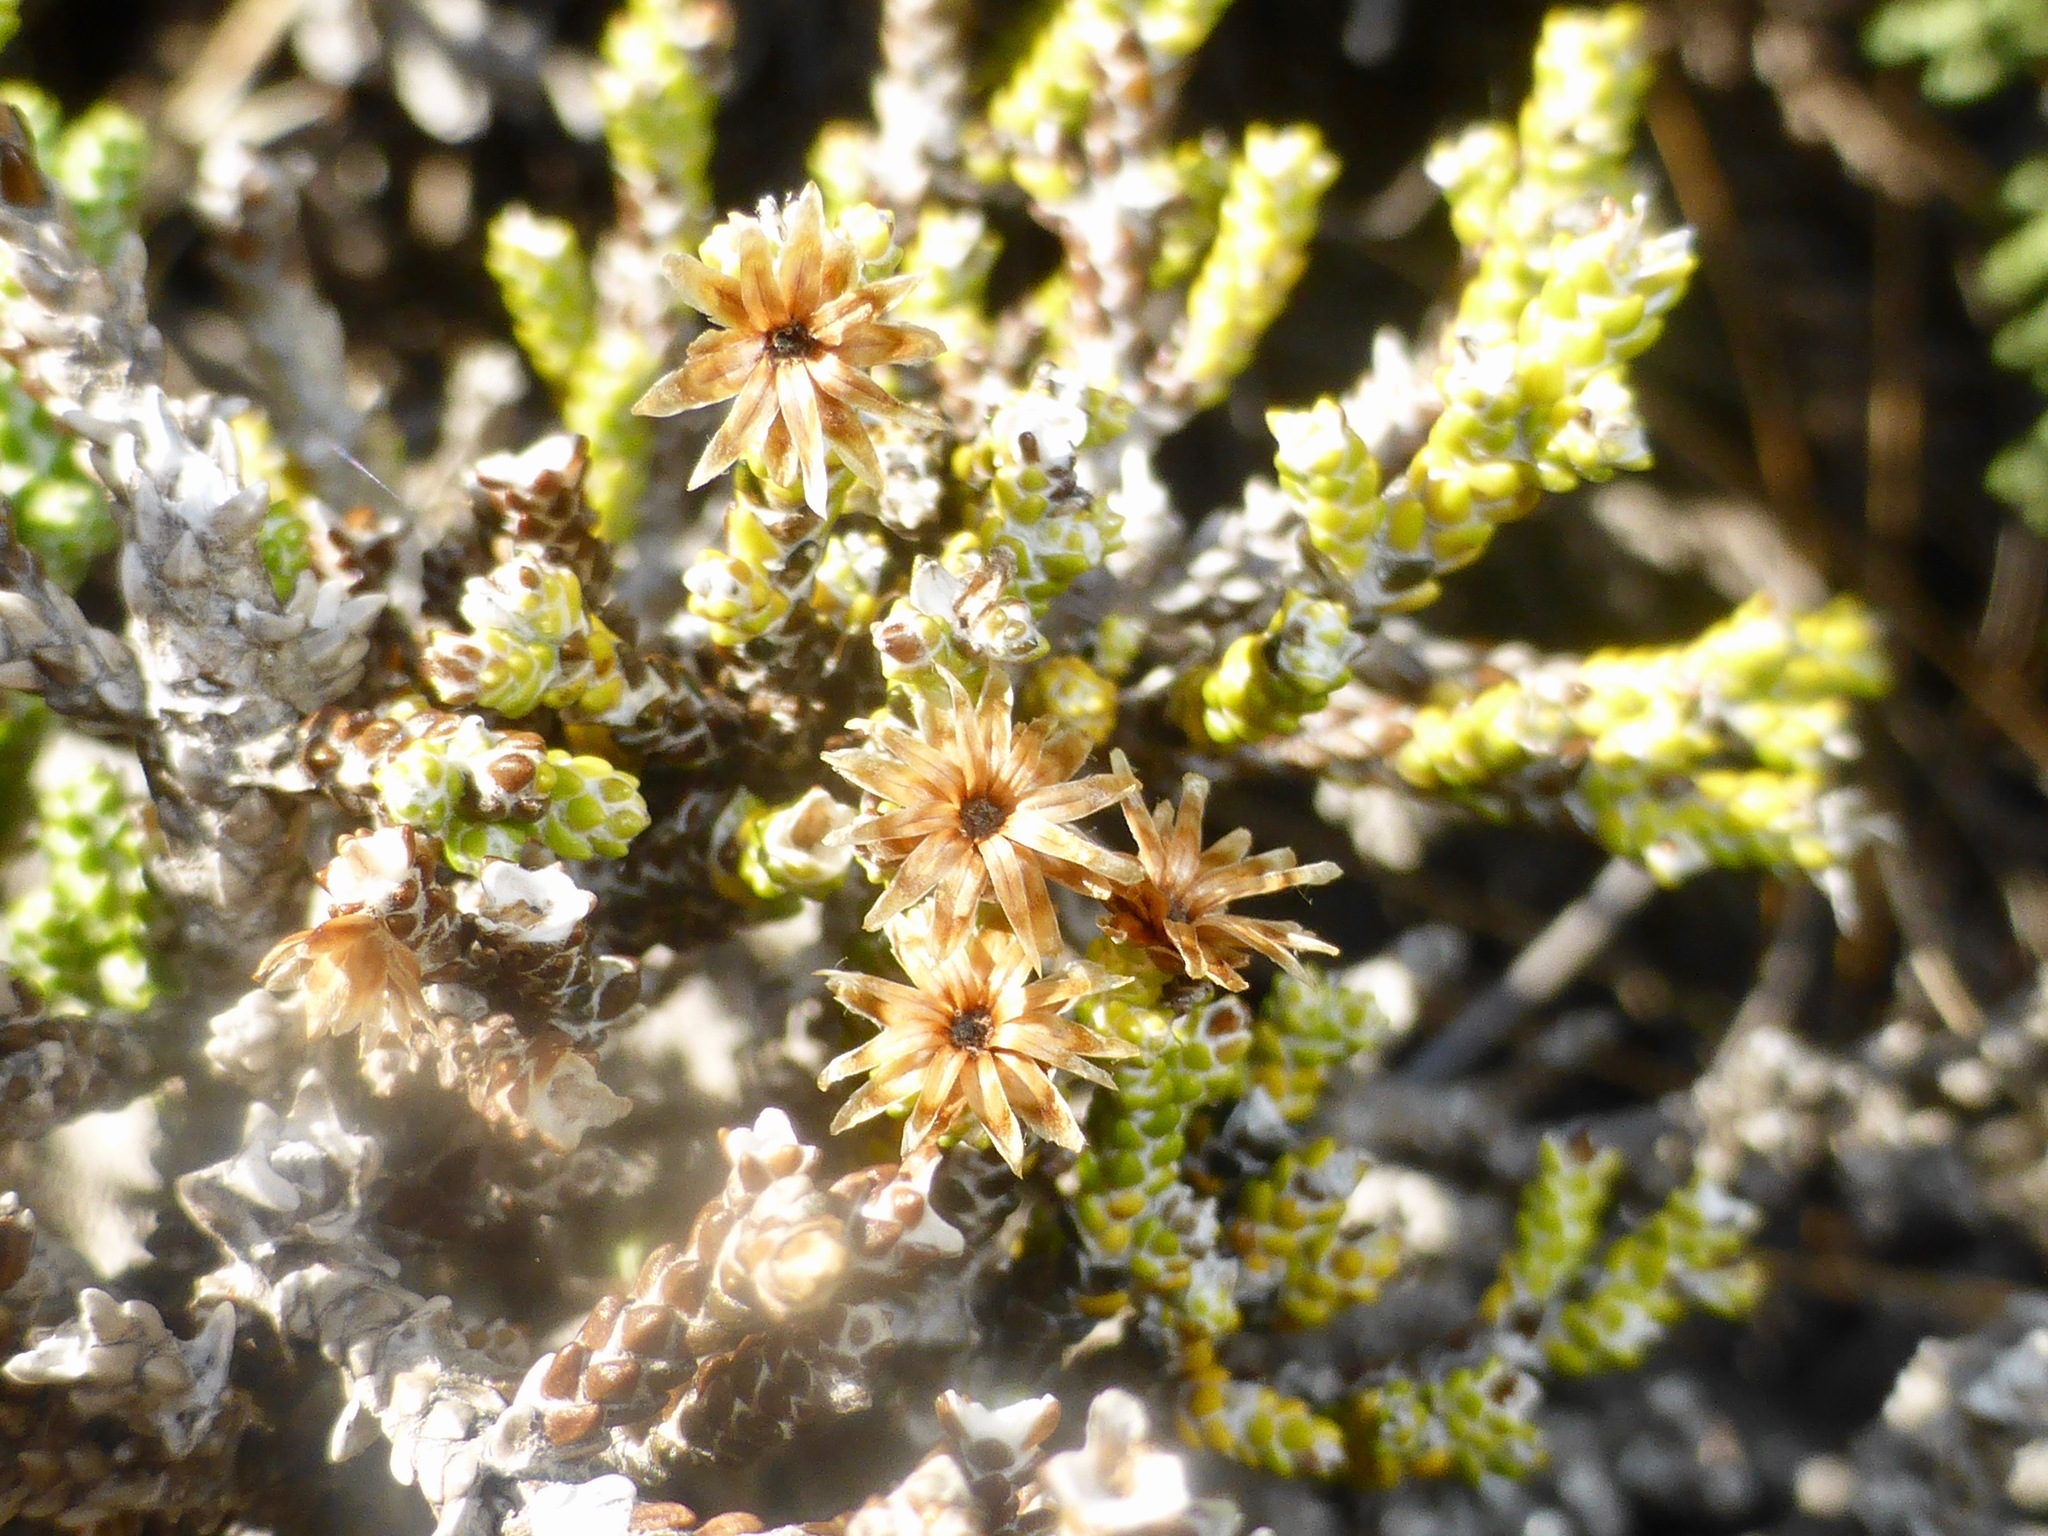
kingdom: Plantae
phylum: Tracheophyta
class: Magnoliopsida
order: Asterales
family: Asteraceae
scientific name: Asteraceae
